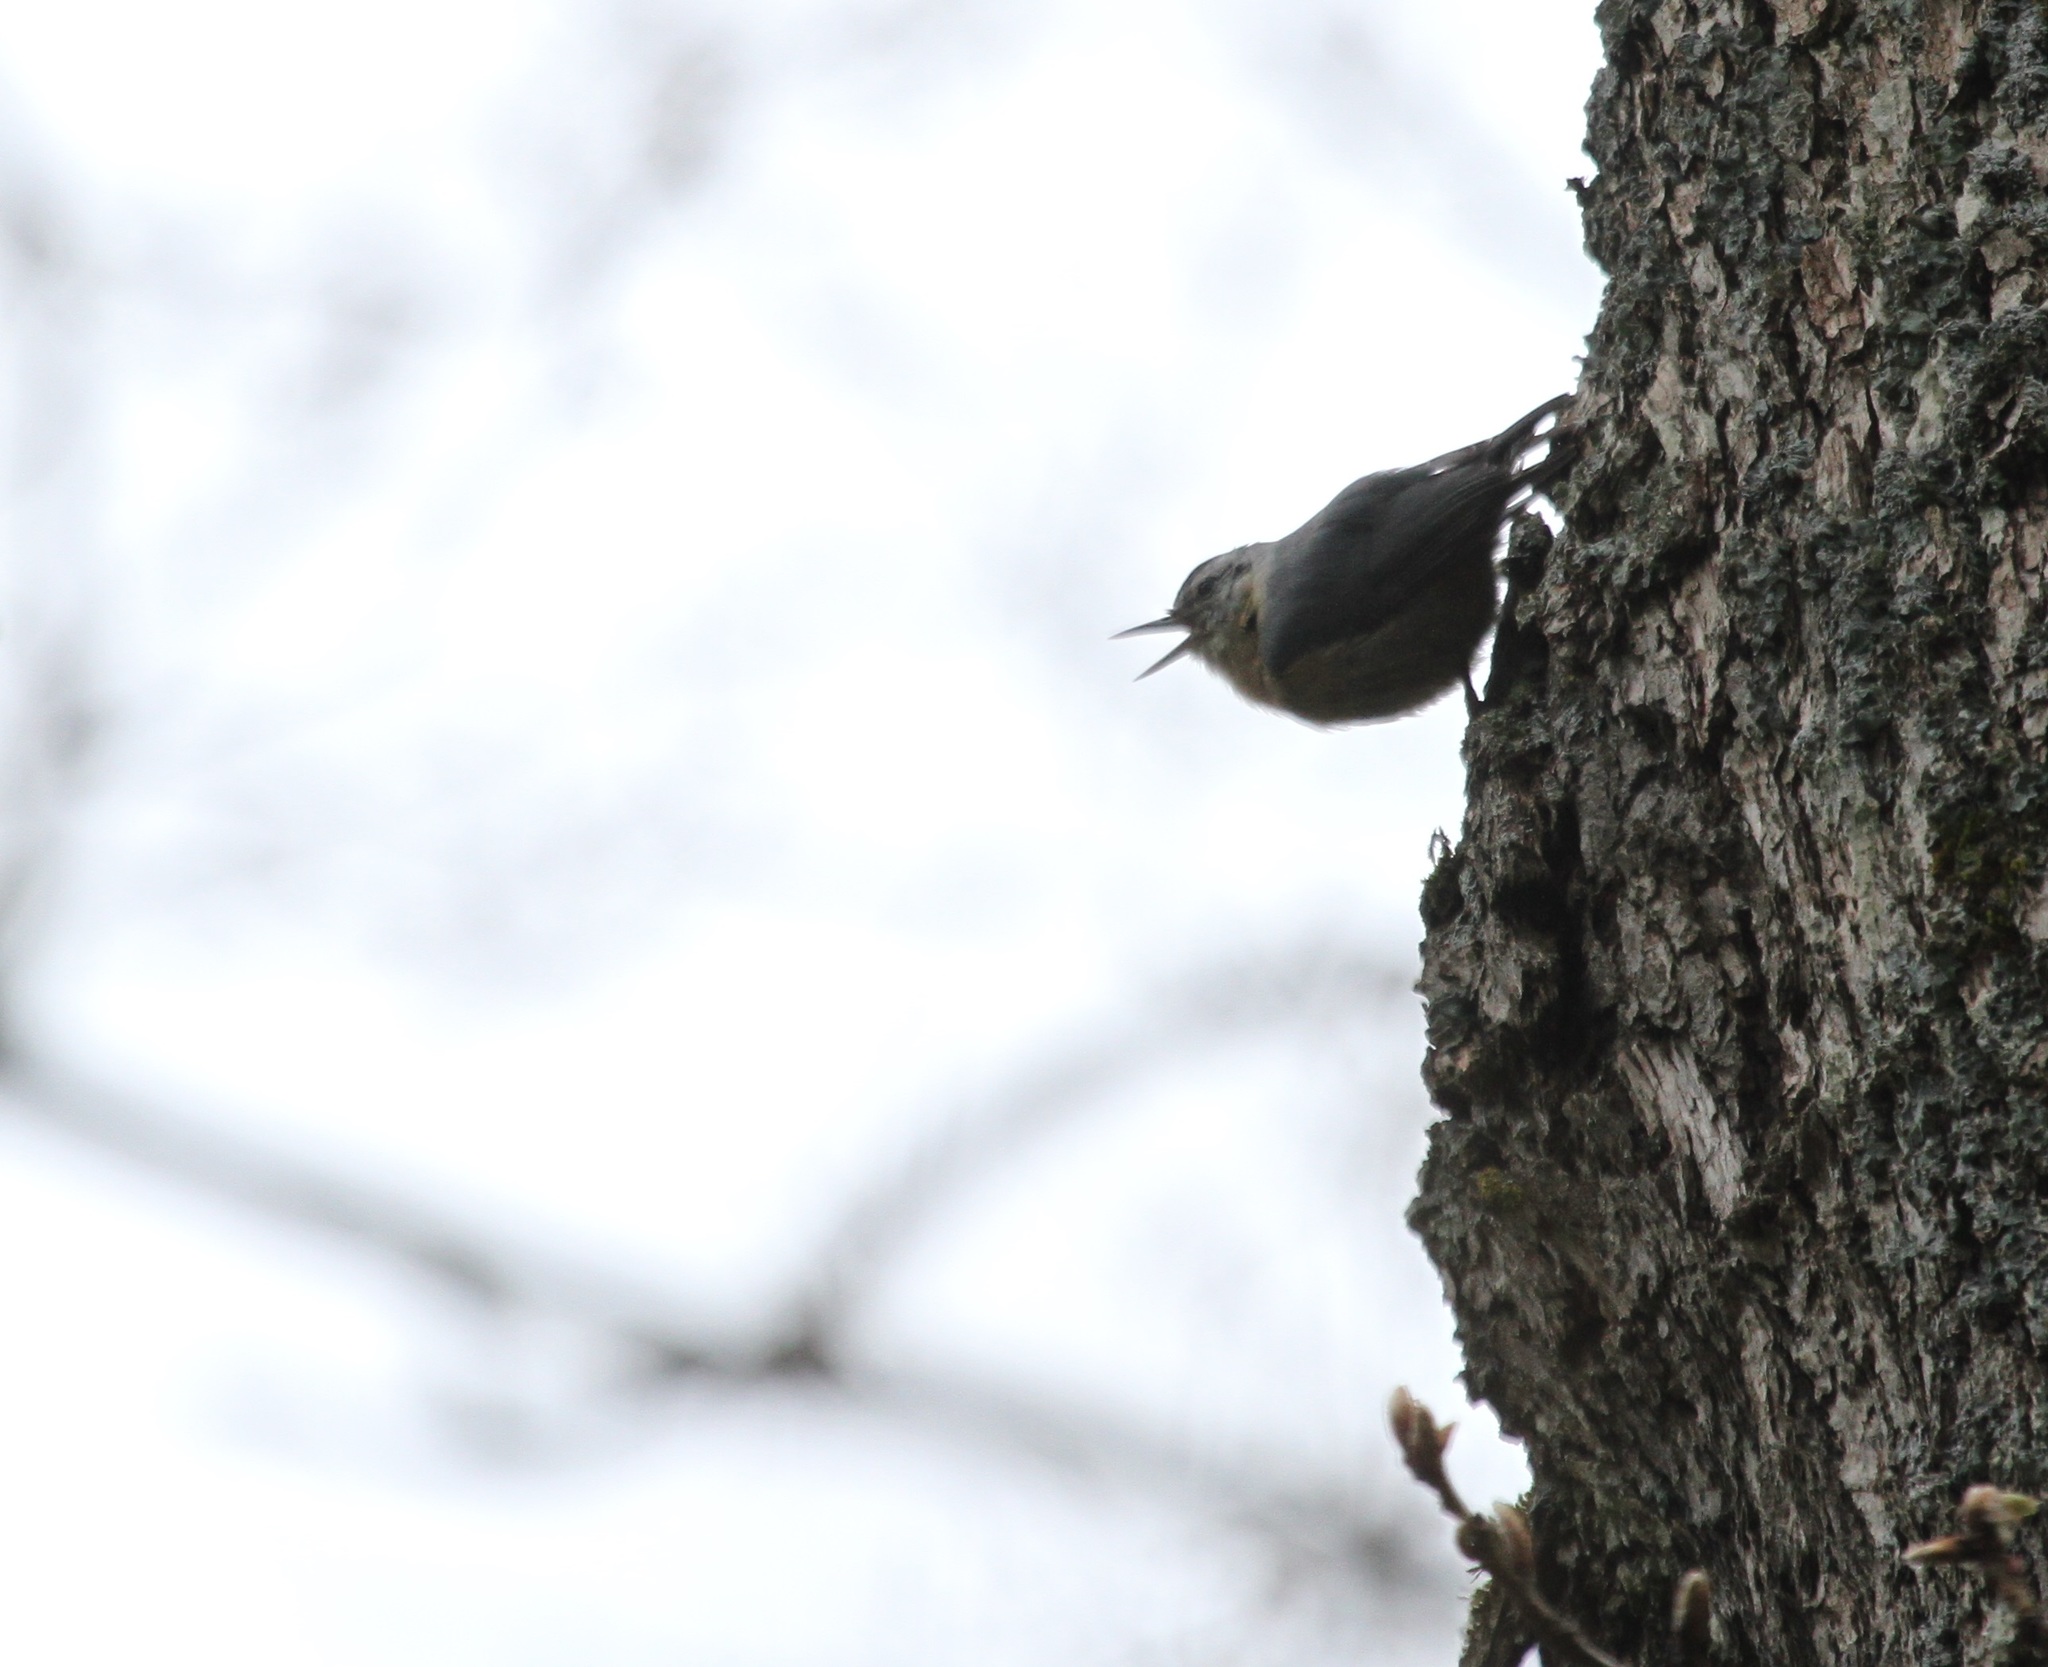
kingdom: Animalia
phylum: Chordata
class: Aves
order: Passeriformes
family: Sittidae
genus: Sitta
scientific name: Sitta ledanti
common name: Algerian nuthatch
